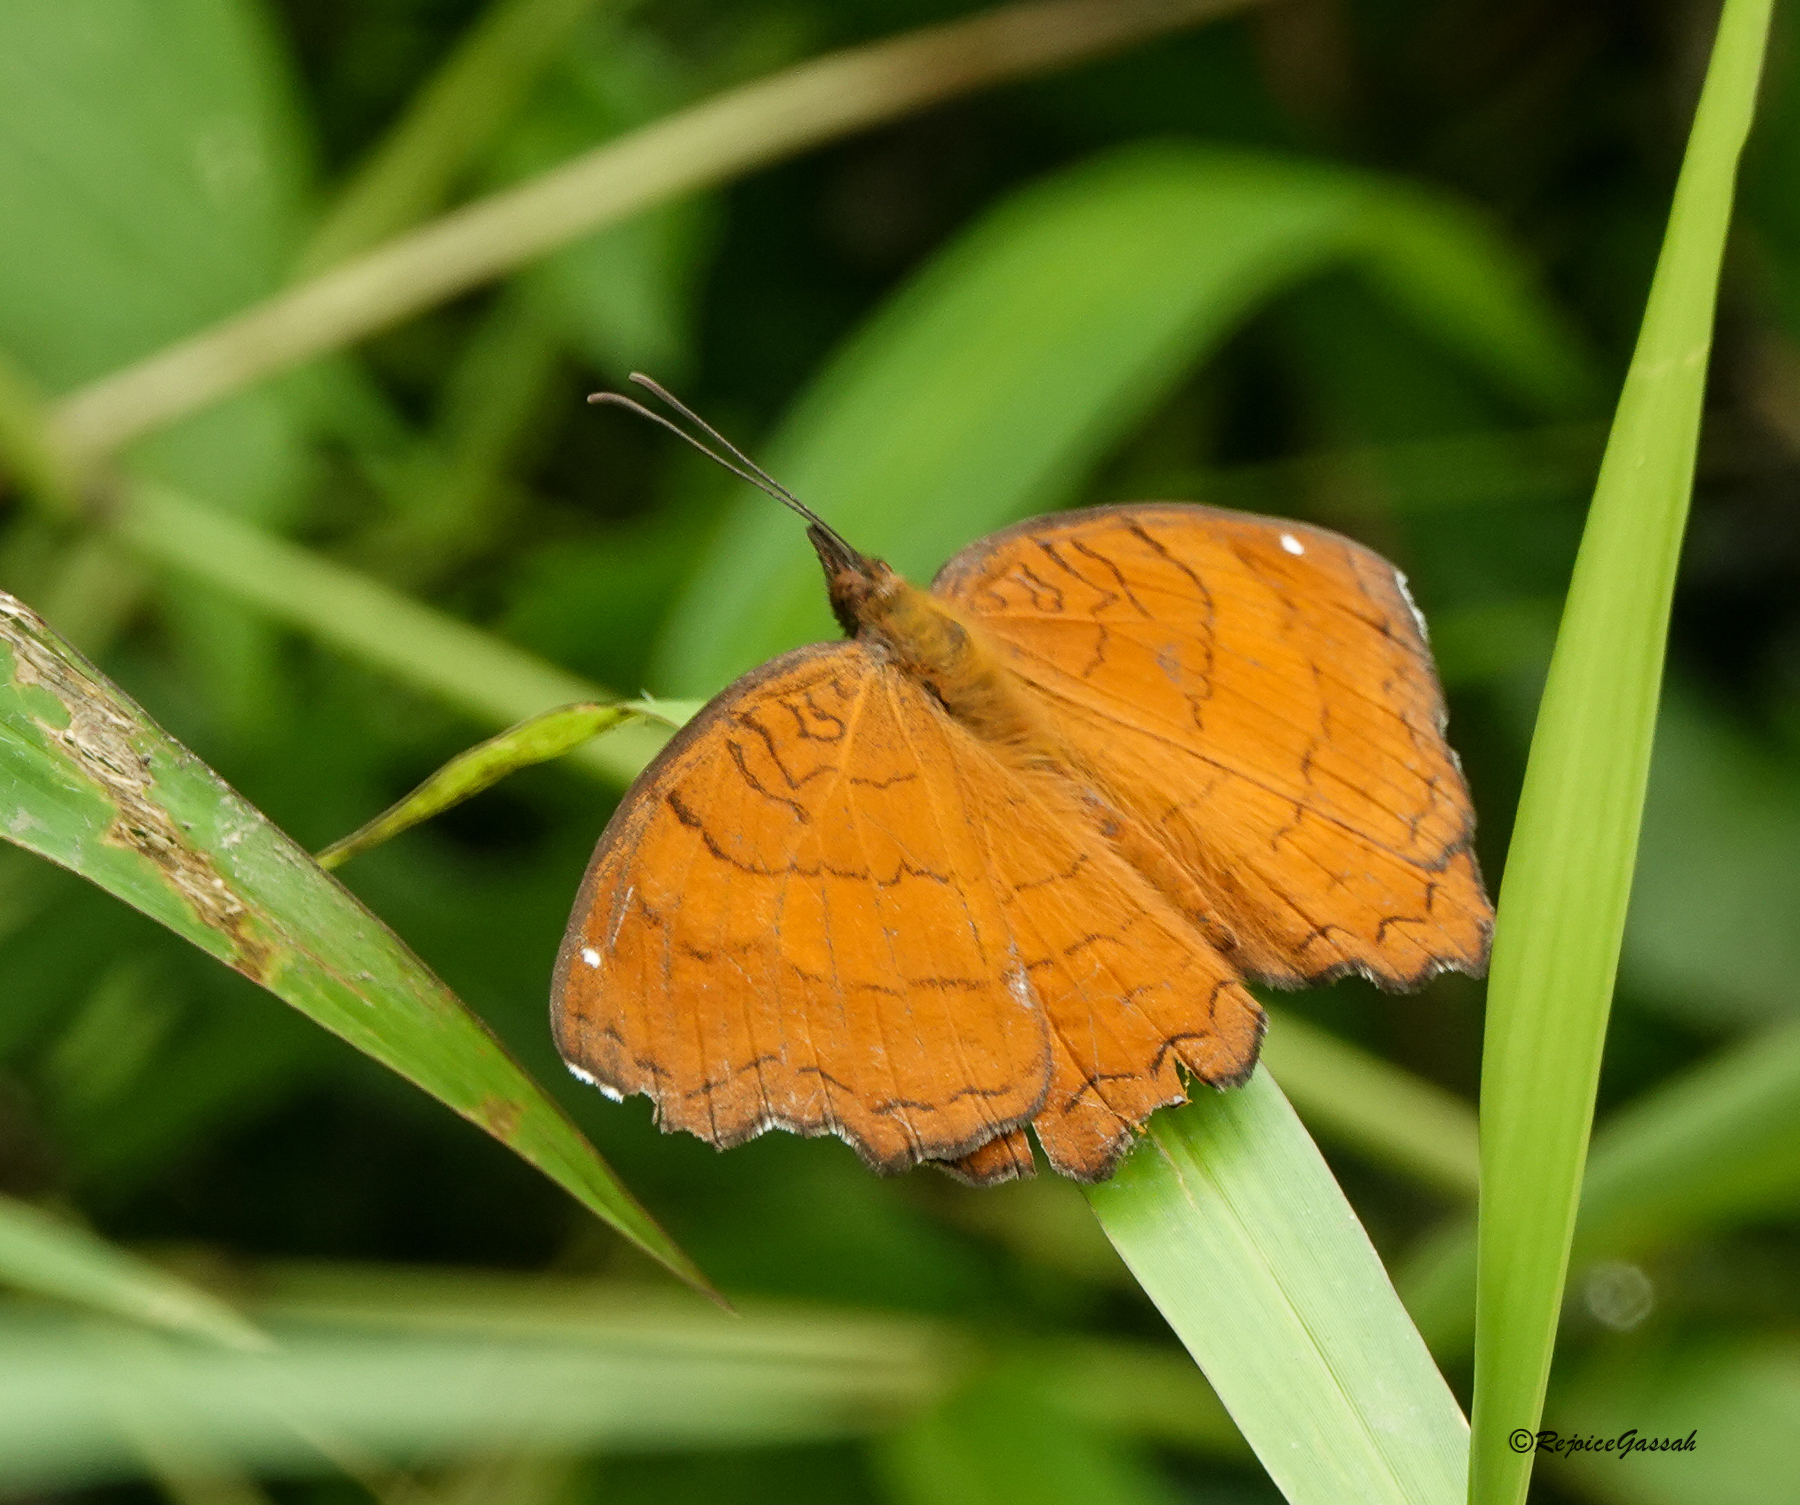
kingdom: Animalia
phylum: Arthropoda
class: Insecta
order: Lepidoptera
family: Nymphalidae
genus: Ariadne
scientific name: Ariadne ariadne
